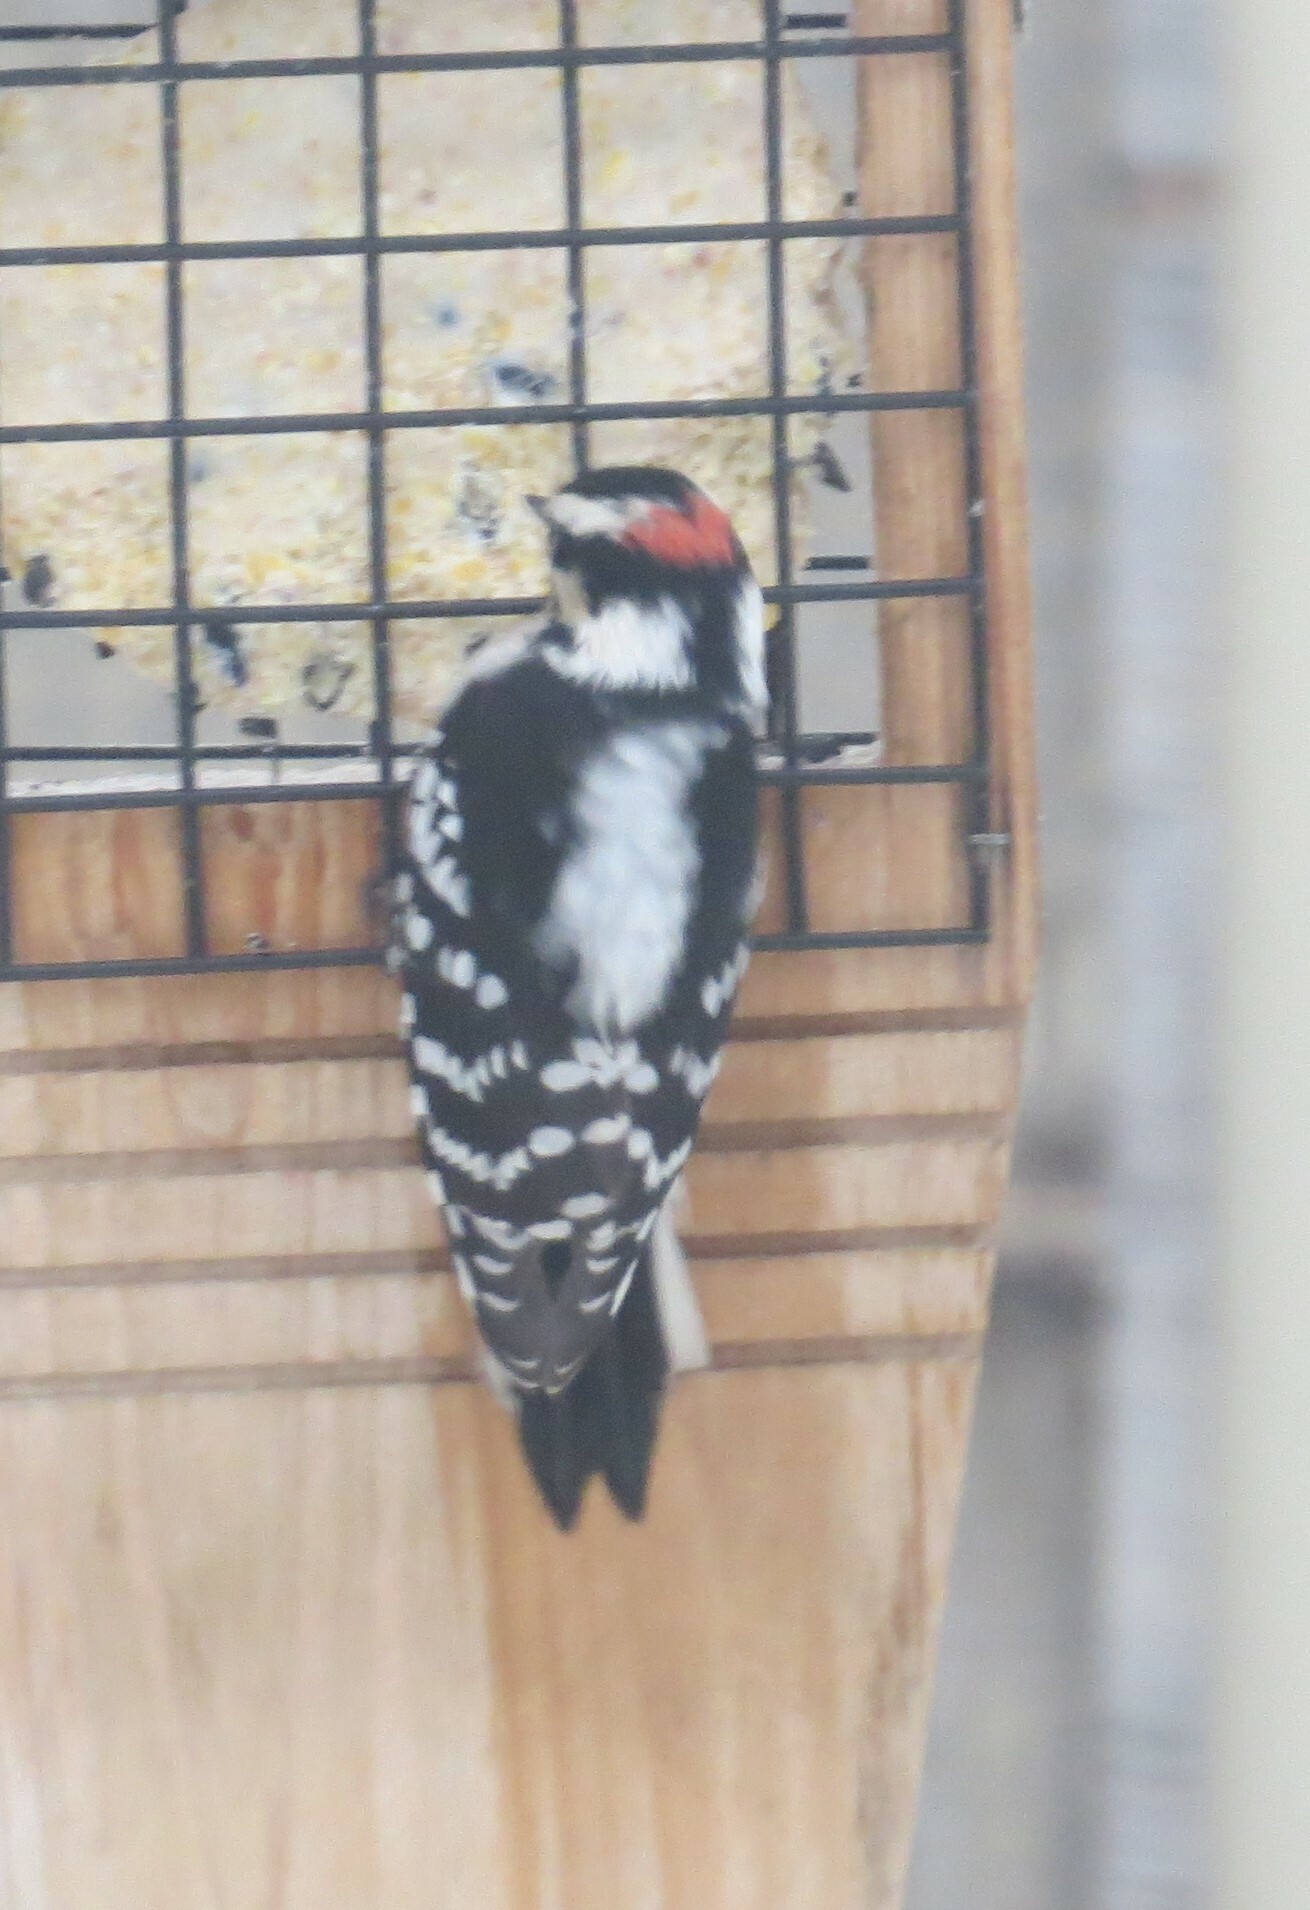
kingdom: Animalia
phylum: Chordata
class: Aves
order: Piciformes
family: Picidae
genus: Dryobates
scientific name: Dryobates pubescens
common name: Downy woodpecker
